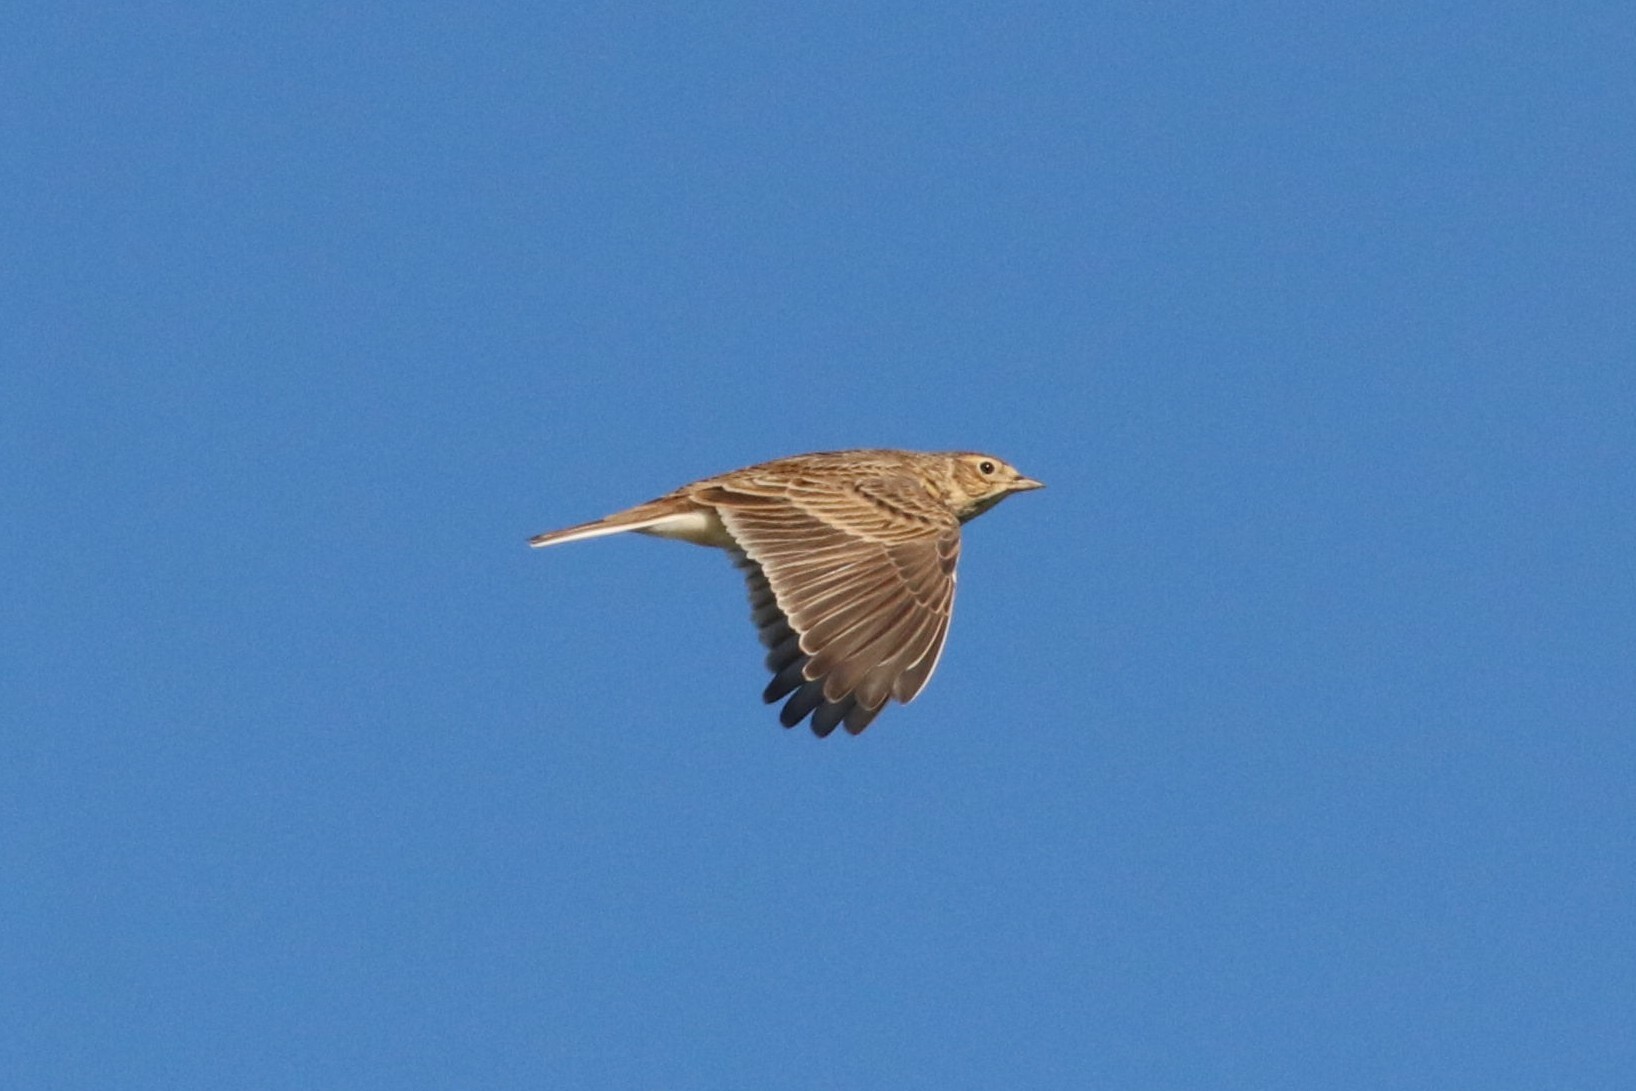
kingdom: Animalia
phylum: Chordata
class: Aves
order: Passeriformes
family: Alaudidae
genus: Alauda
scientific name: Alauda arvensis
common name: Eurasian skylark
